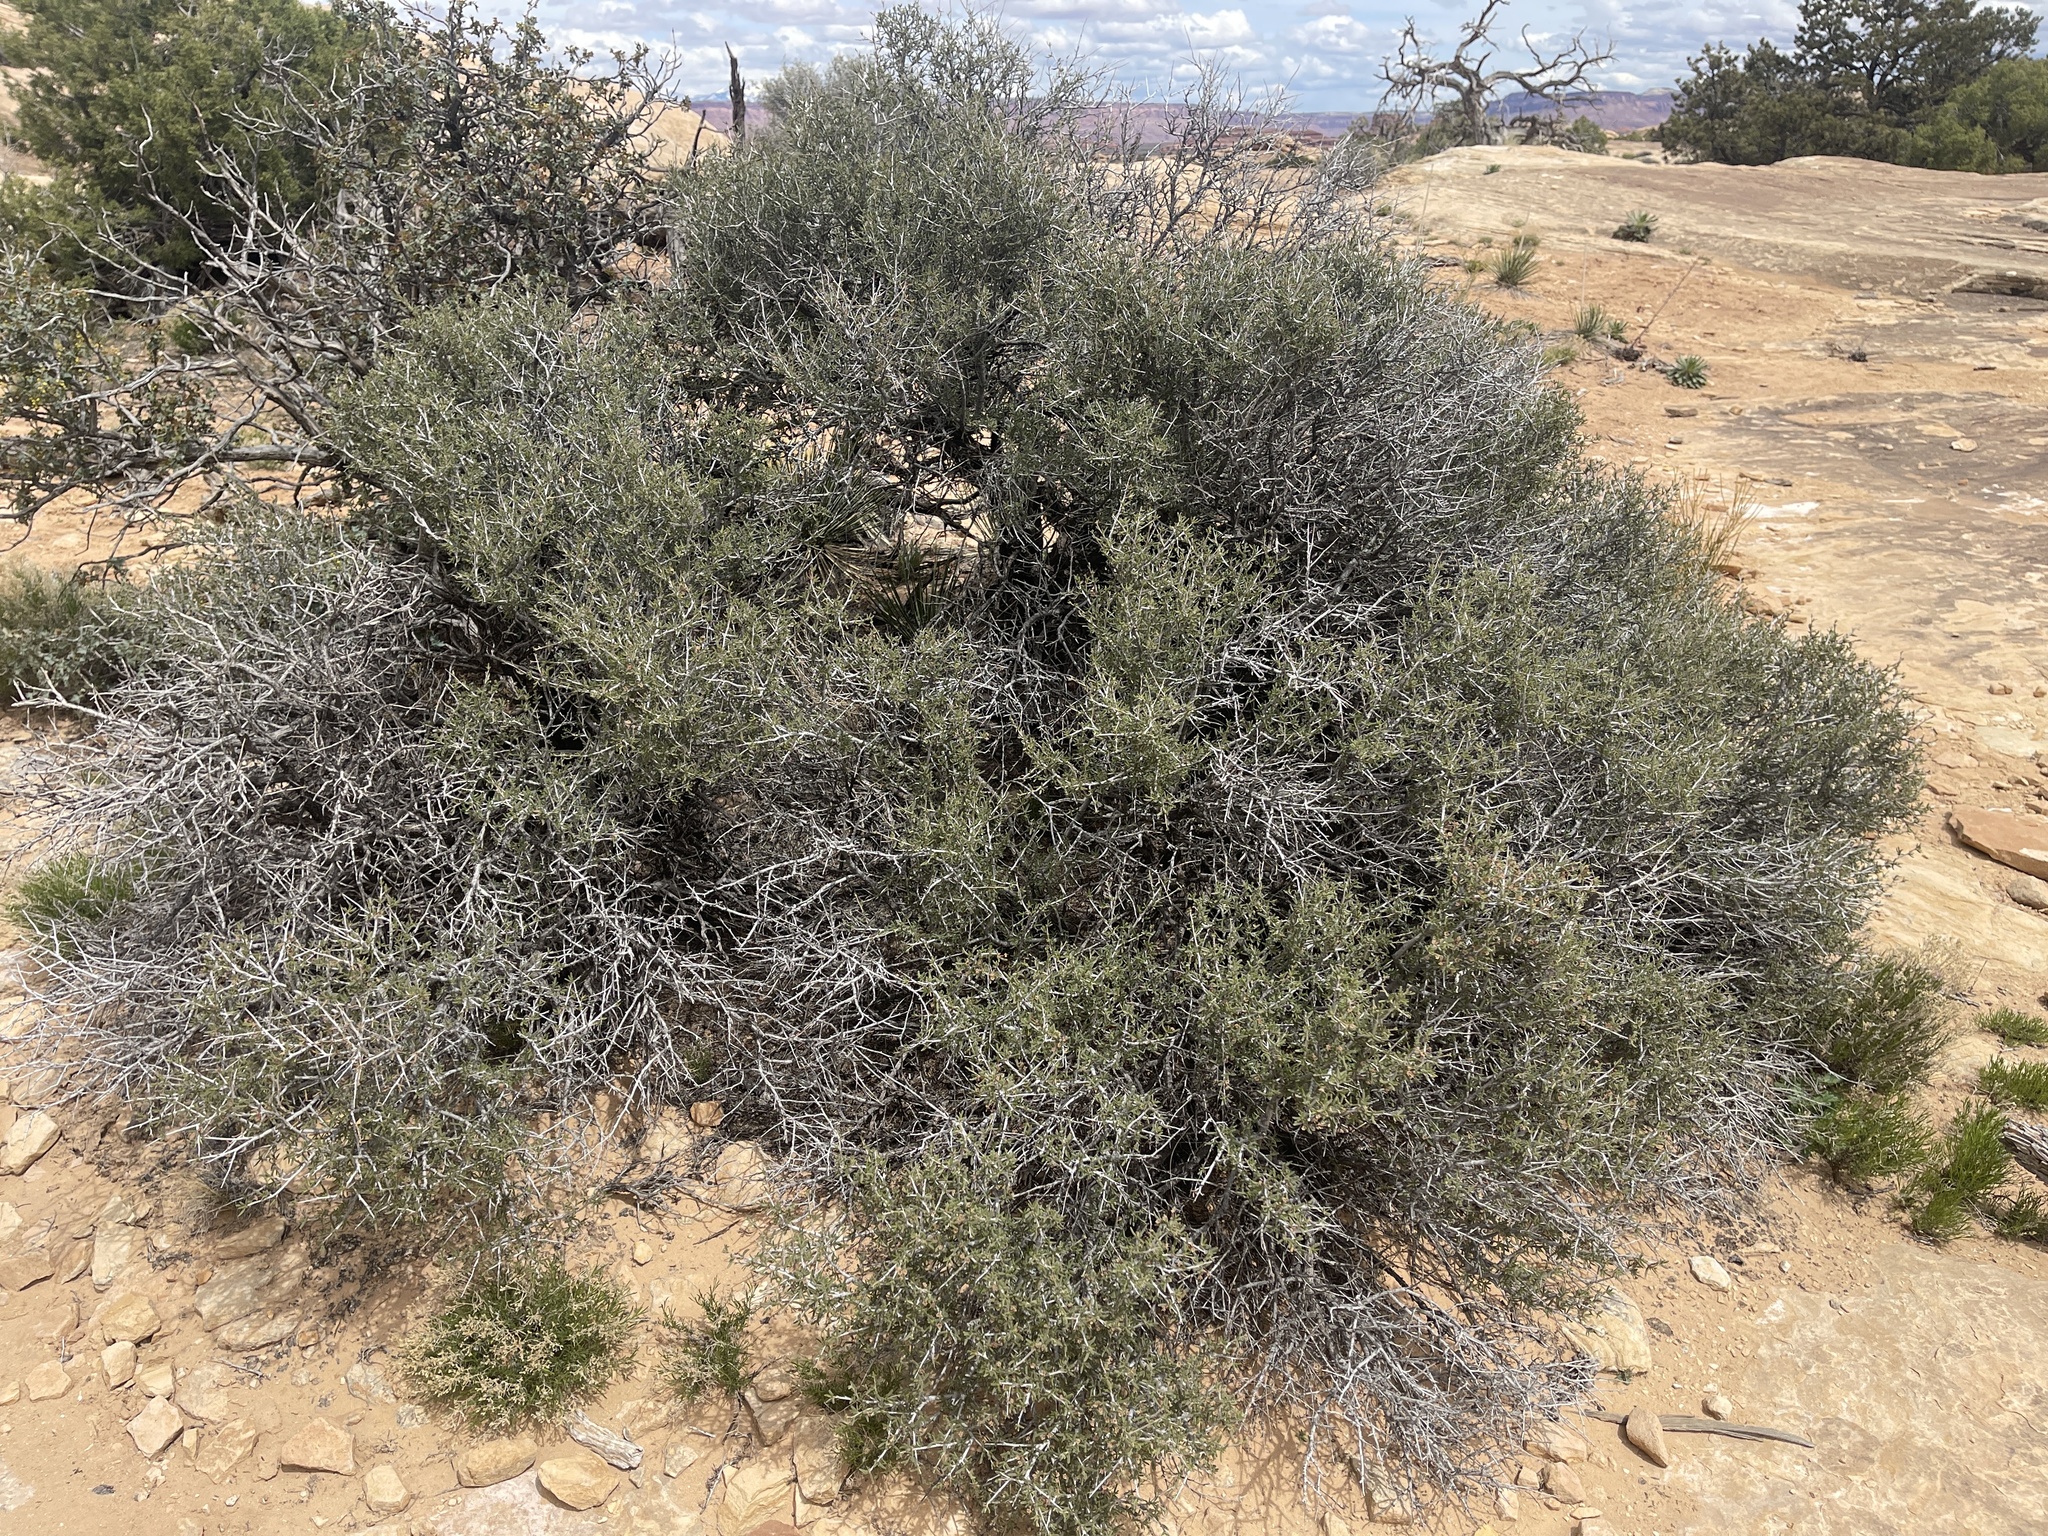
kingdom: Plantae
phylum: Tracheophyta
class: Magnoliopsida
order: Rosales
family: Rosaceae
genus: Cercocarpus
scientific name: Cercocarpus intricatus
